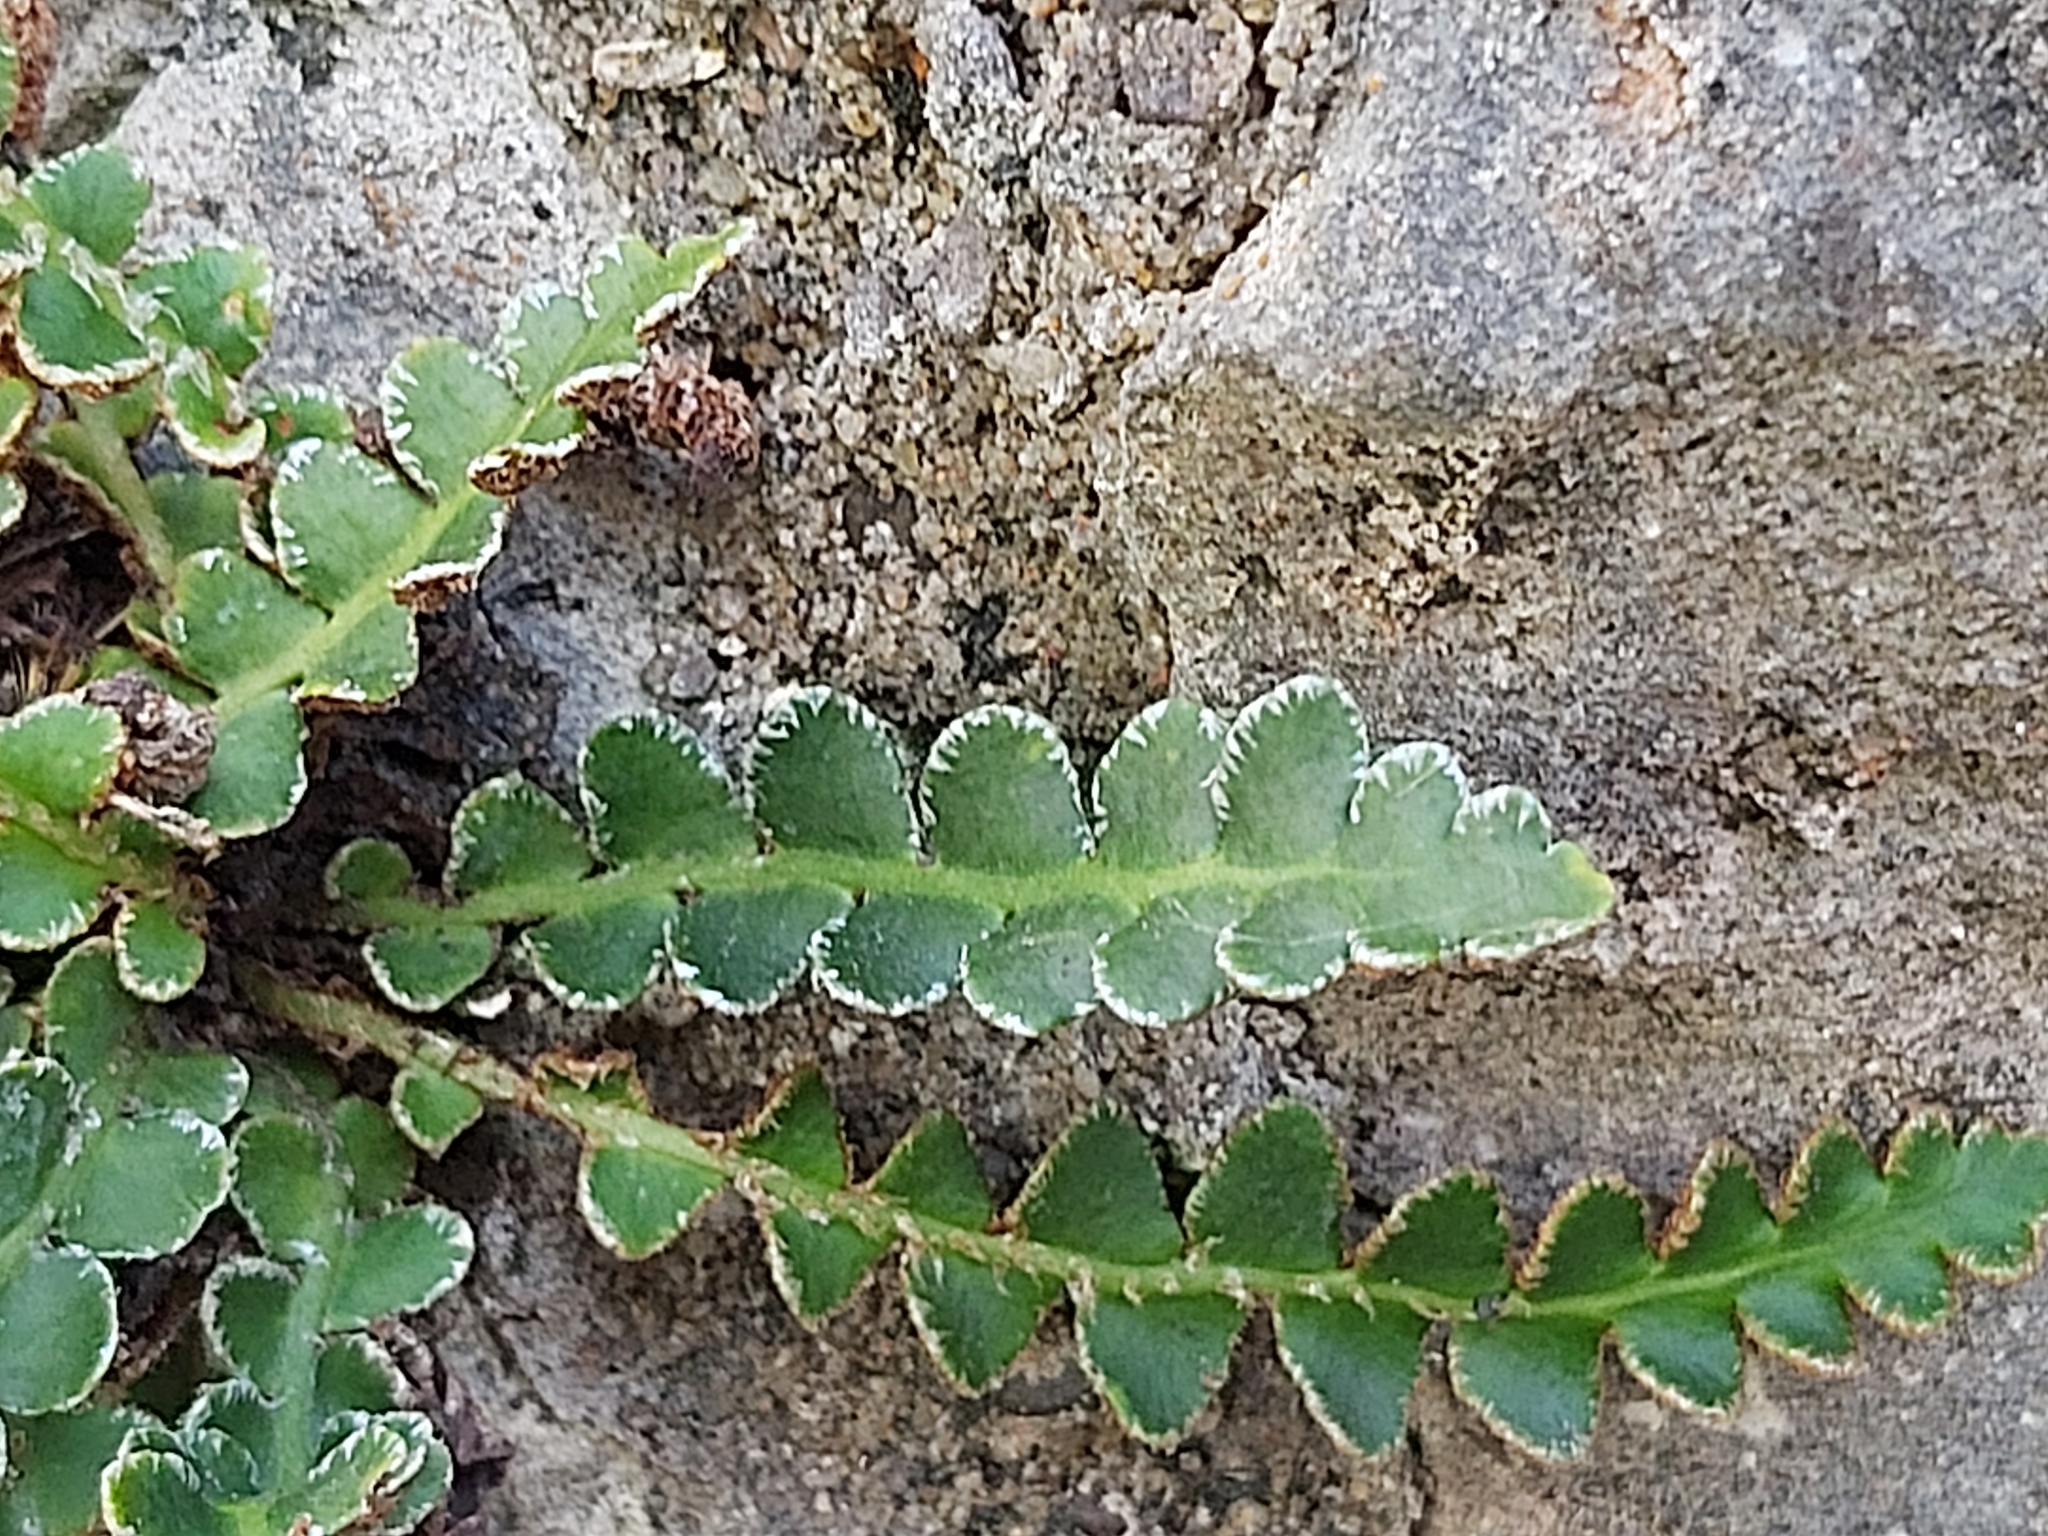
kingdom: Plantae
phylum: Tracheophyta
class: Polypodiopsida
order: Polypodiales
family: Aspleniaceae
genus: Asplenium
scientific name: Asplenium ceterach
